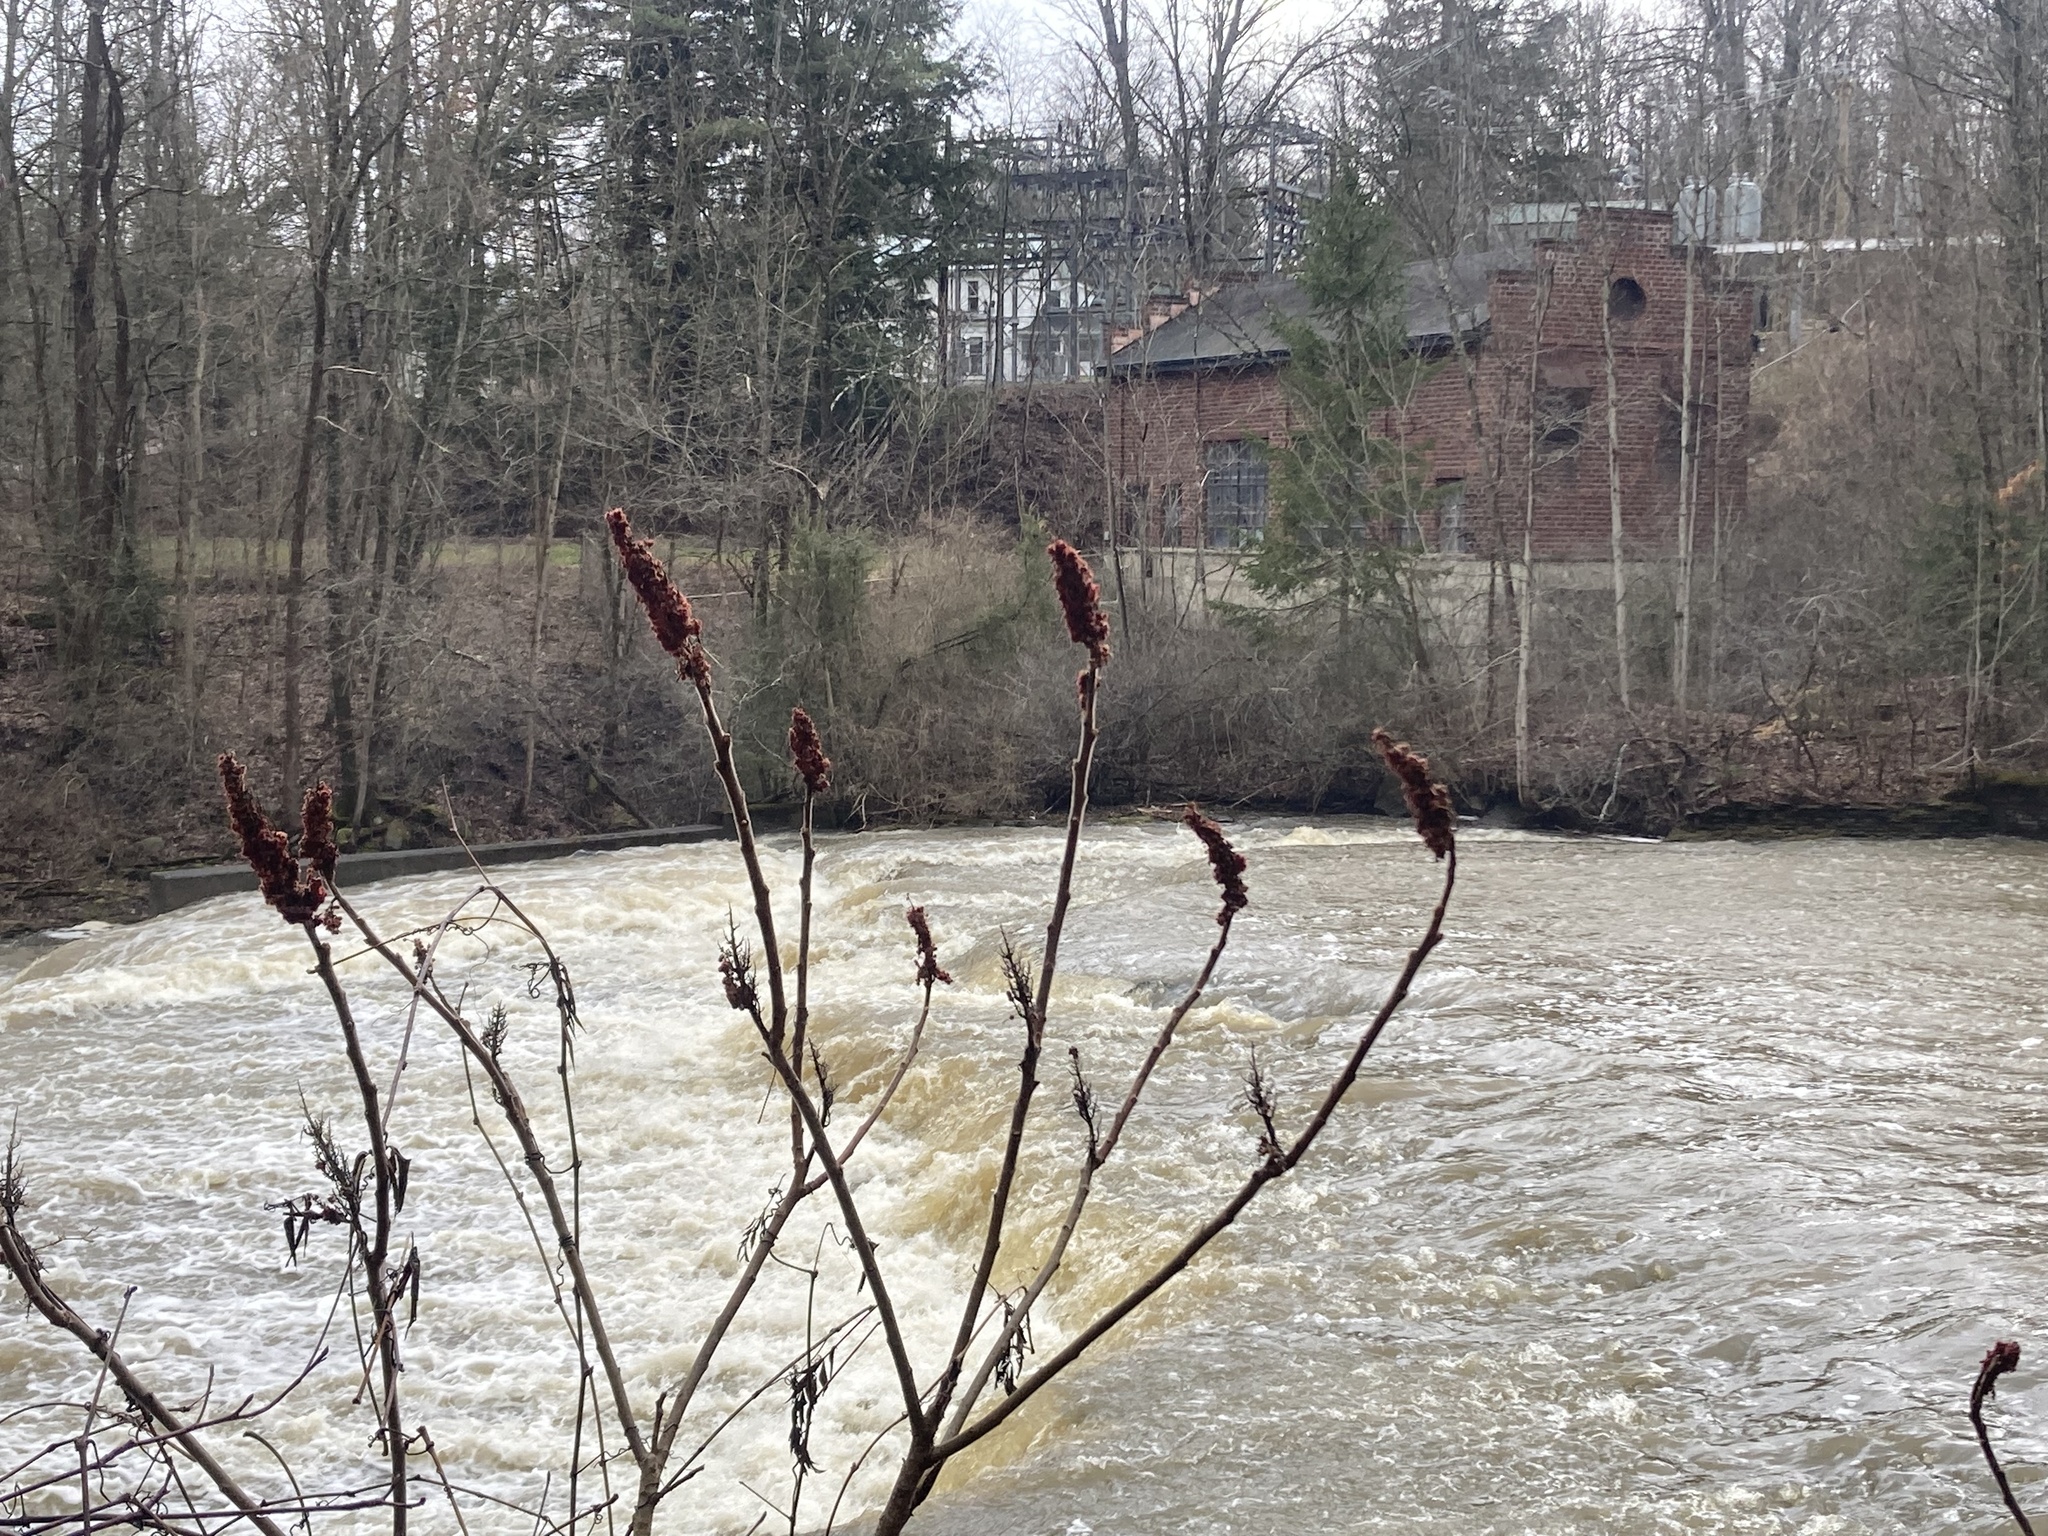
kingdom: Plantae
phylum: Tracheophyta
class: Magnoliopsida
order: Sapindales
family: Anacardiaceae
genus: Rhus
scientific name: Rhus typhina
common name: Staghorn sumac
